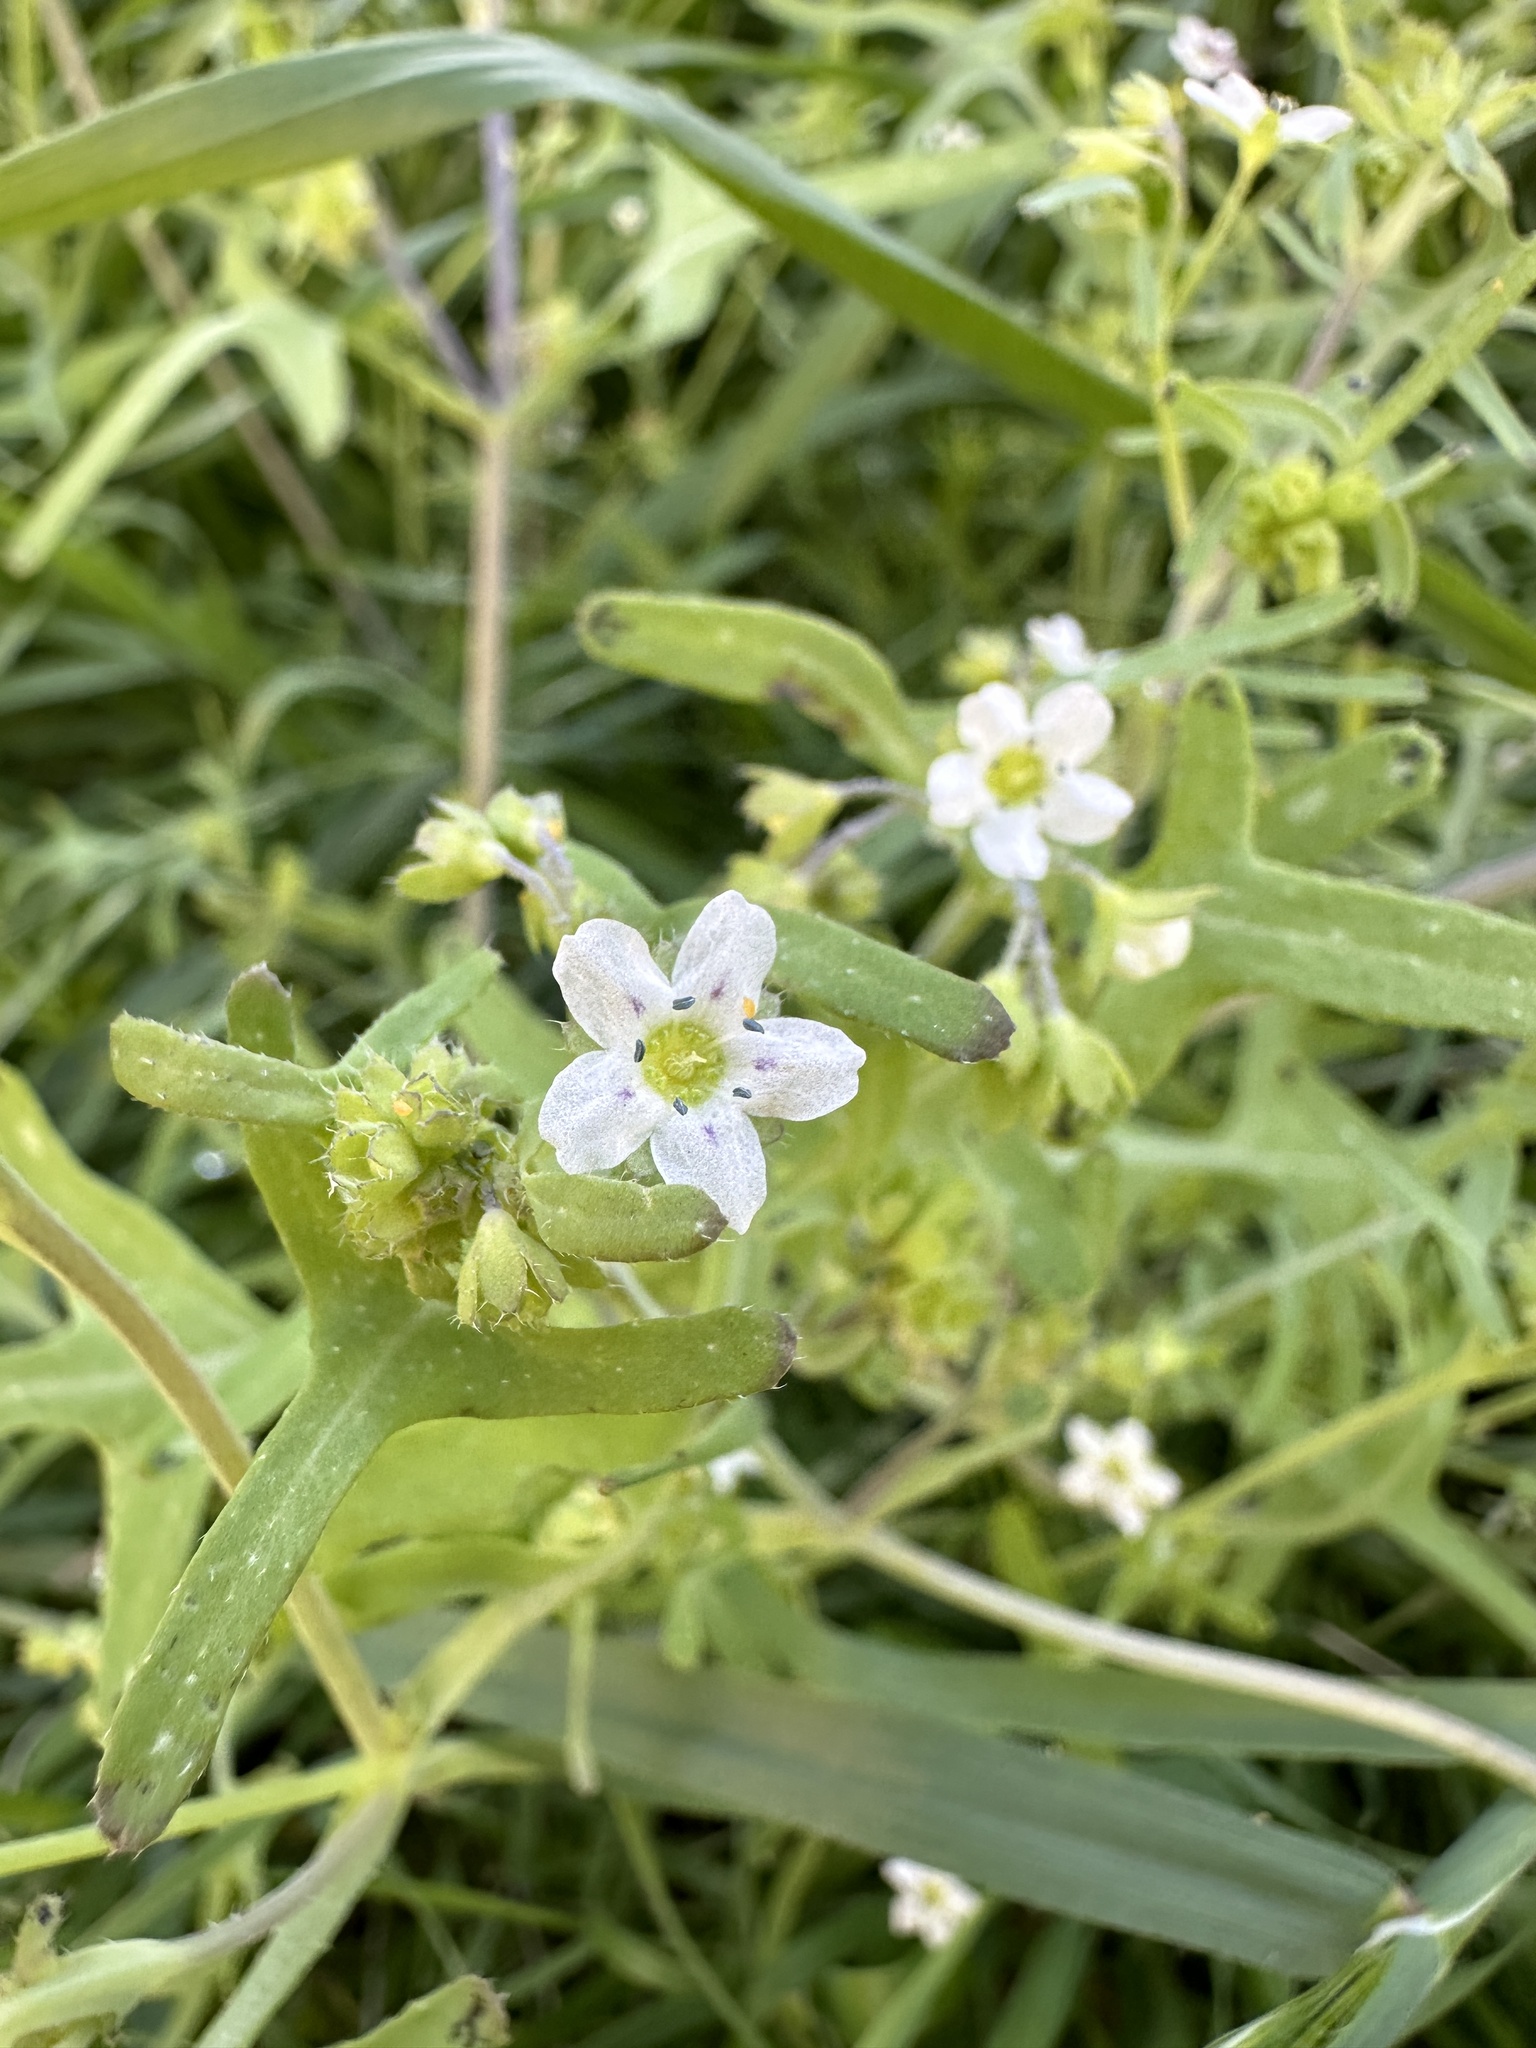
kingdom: Plantae
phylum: Tracheophyta
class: Magnoliopsida
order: Boraginales
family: Hydrophyllaceae
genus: Pholistoma
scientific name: Pholistoma membranaceum
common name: White fiesta-flower
